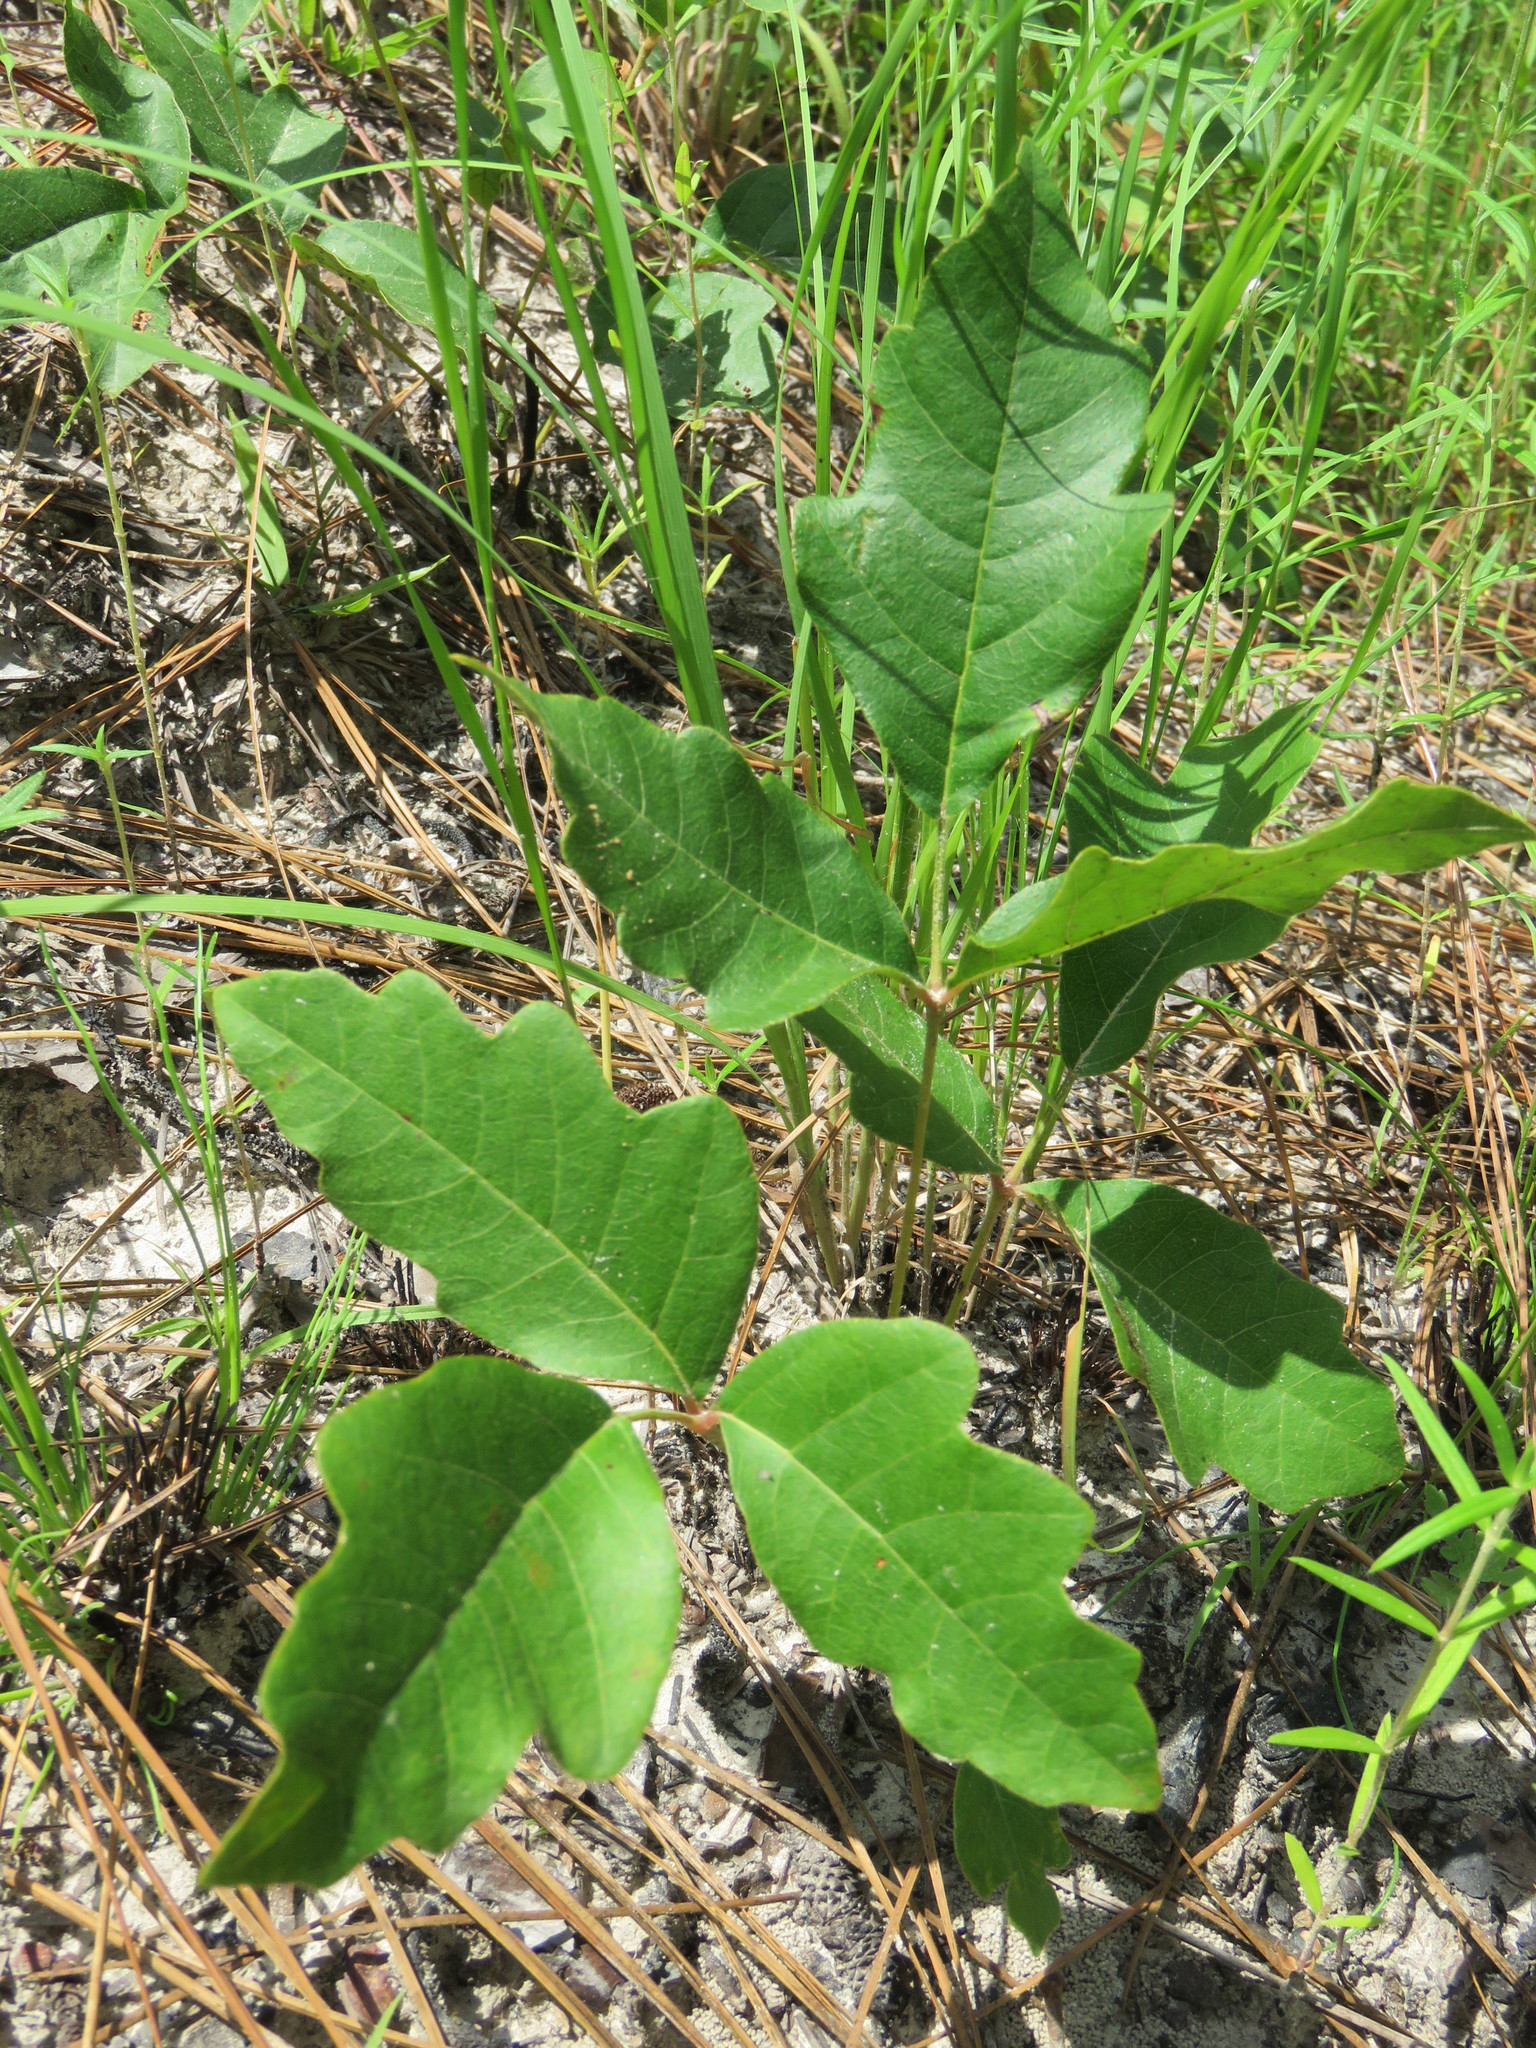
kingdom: Plantae
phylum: Tracheophyta
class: Magnoliopsida
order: Sapindales
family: Anacardiaceae
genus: Toxicodendron
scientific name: Toxicodendron pubescens
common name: Eastern poison-oak
